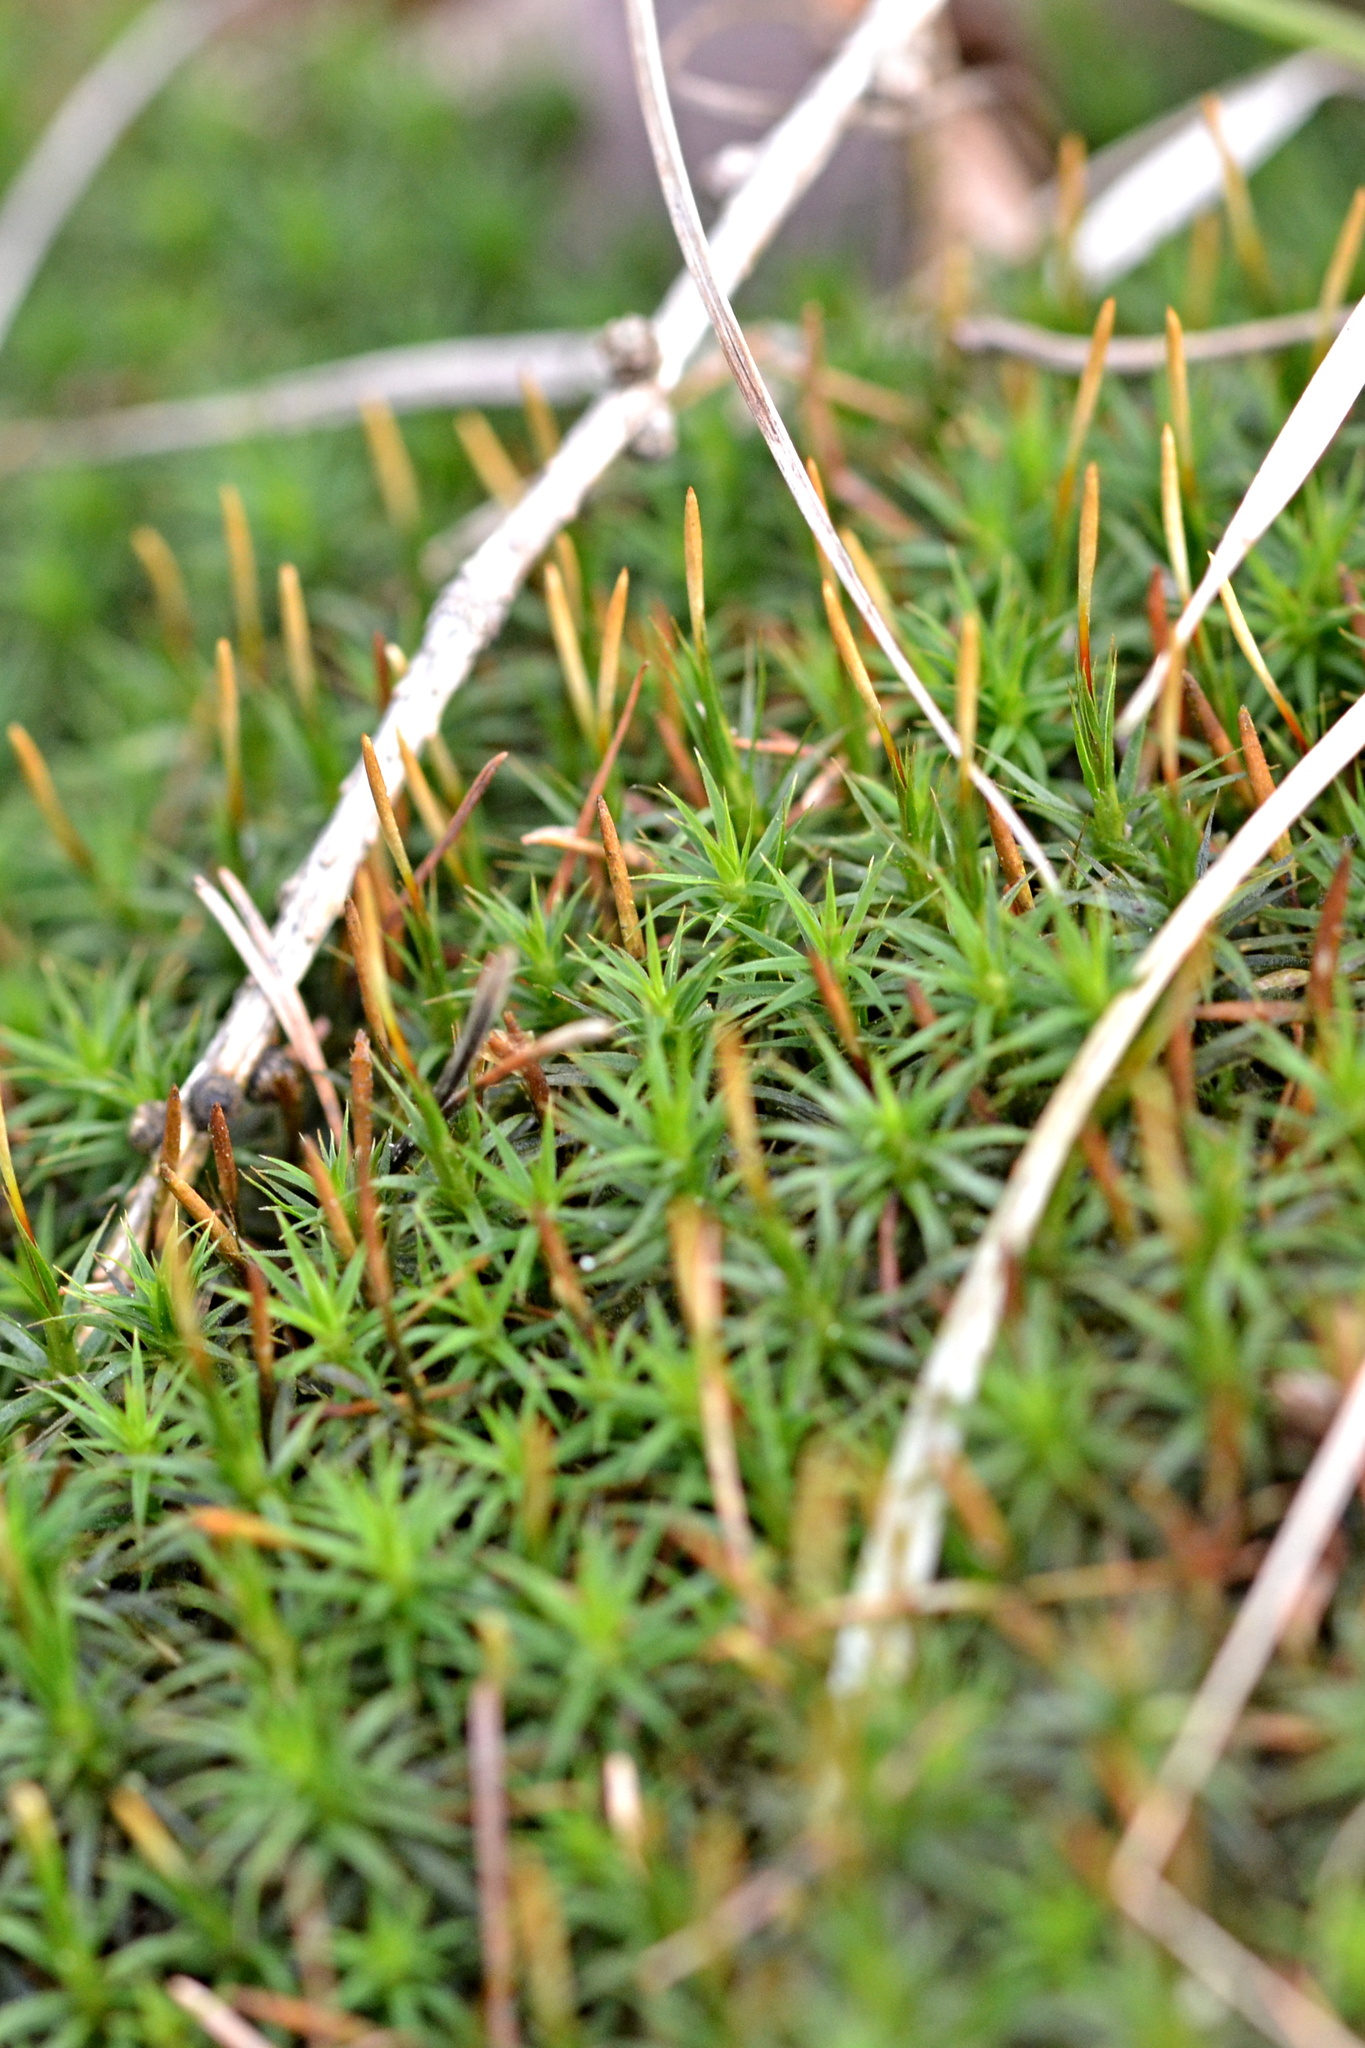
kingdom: Plantae
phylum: Bryophyta
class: Polytrichopsida
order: Polytrichales
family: Polytrichaceae
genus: Polytrichum
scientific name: Polytrichum formosum
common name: Bank haircap moss
